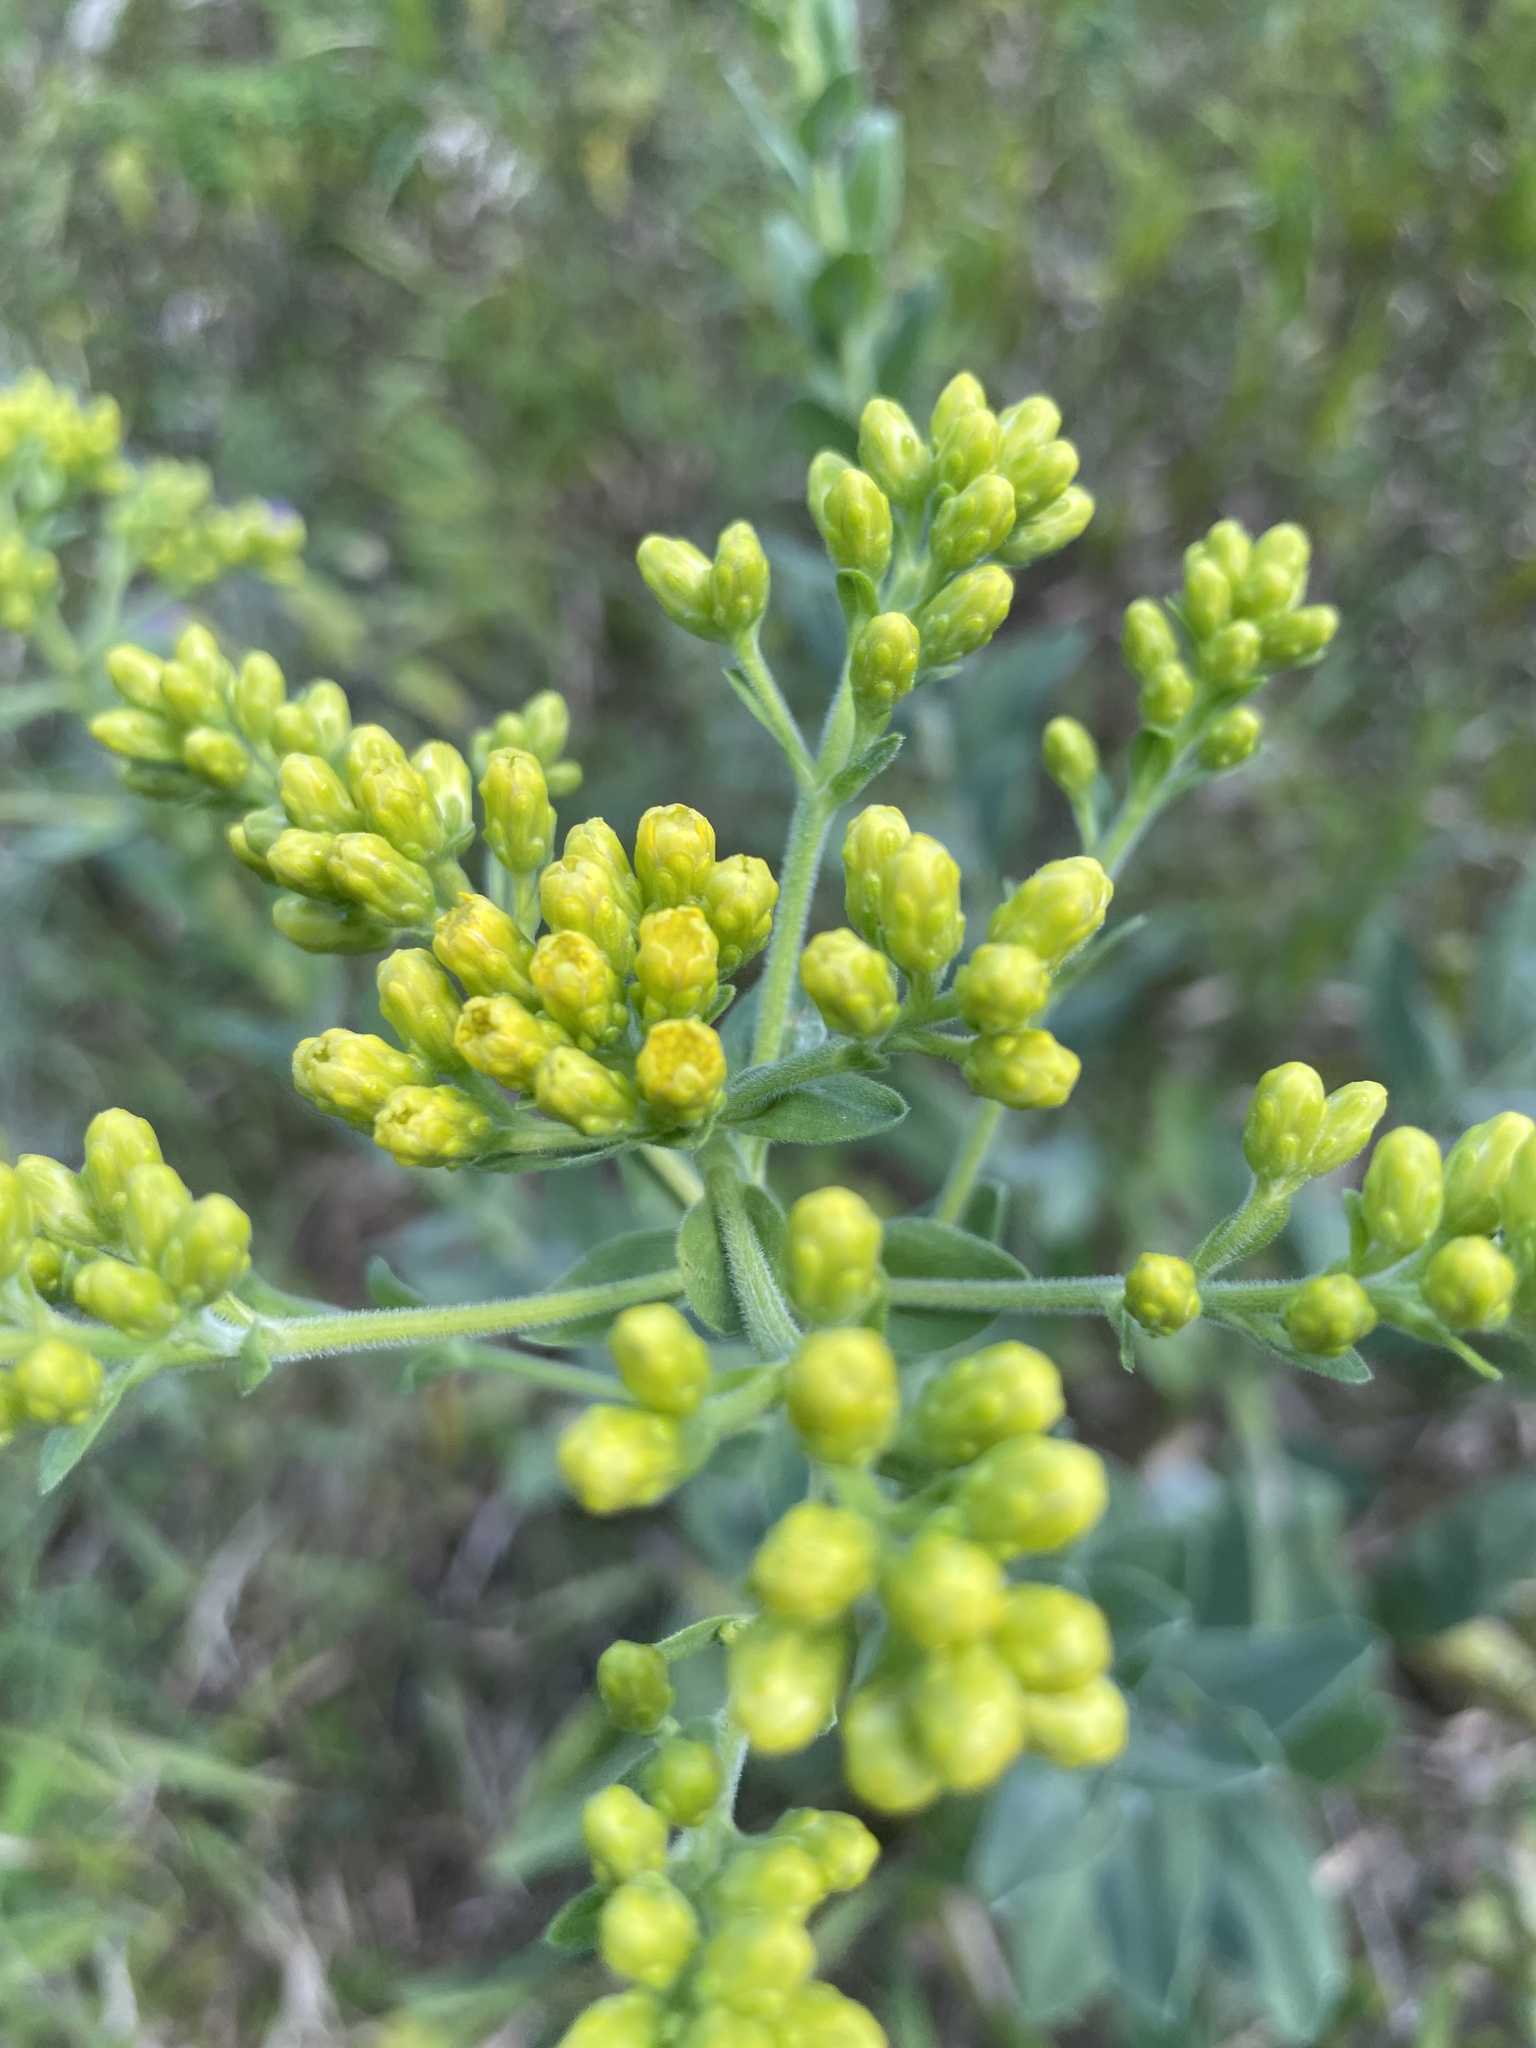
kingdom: Plantae
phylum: Tracheophyta
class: Magnoliopsida
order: Asterales
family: Asteraceae
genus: Solidago
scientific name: Solidago rigida
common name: Rigid goldenrod
